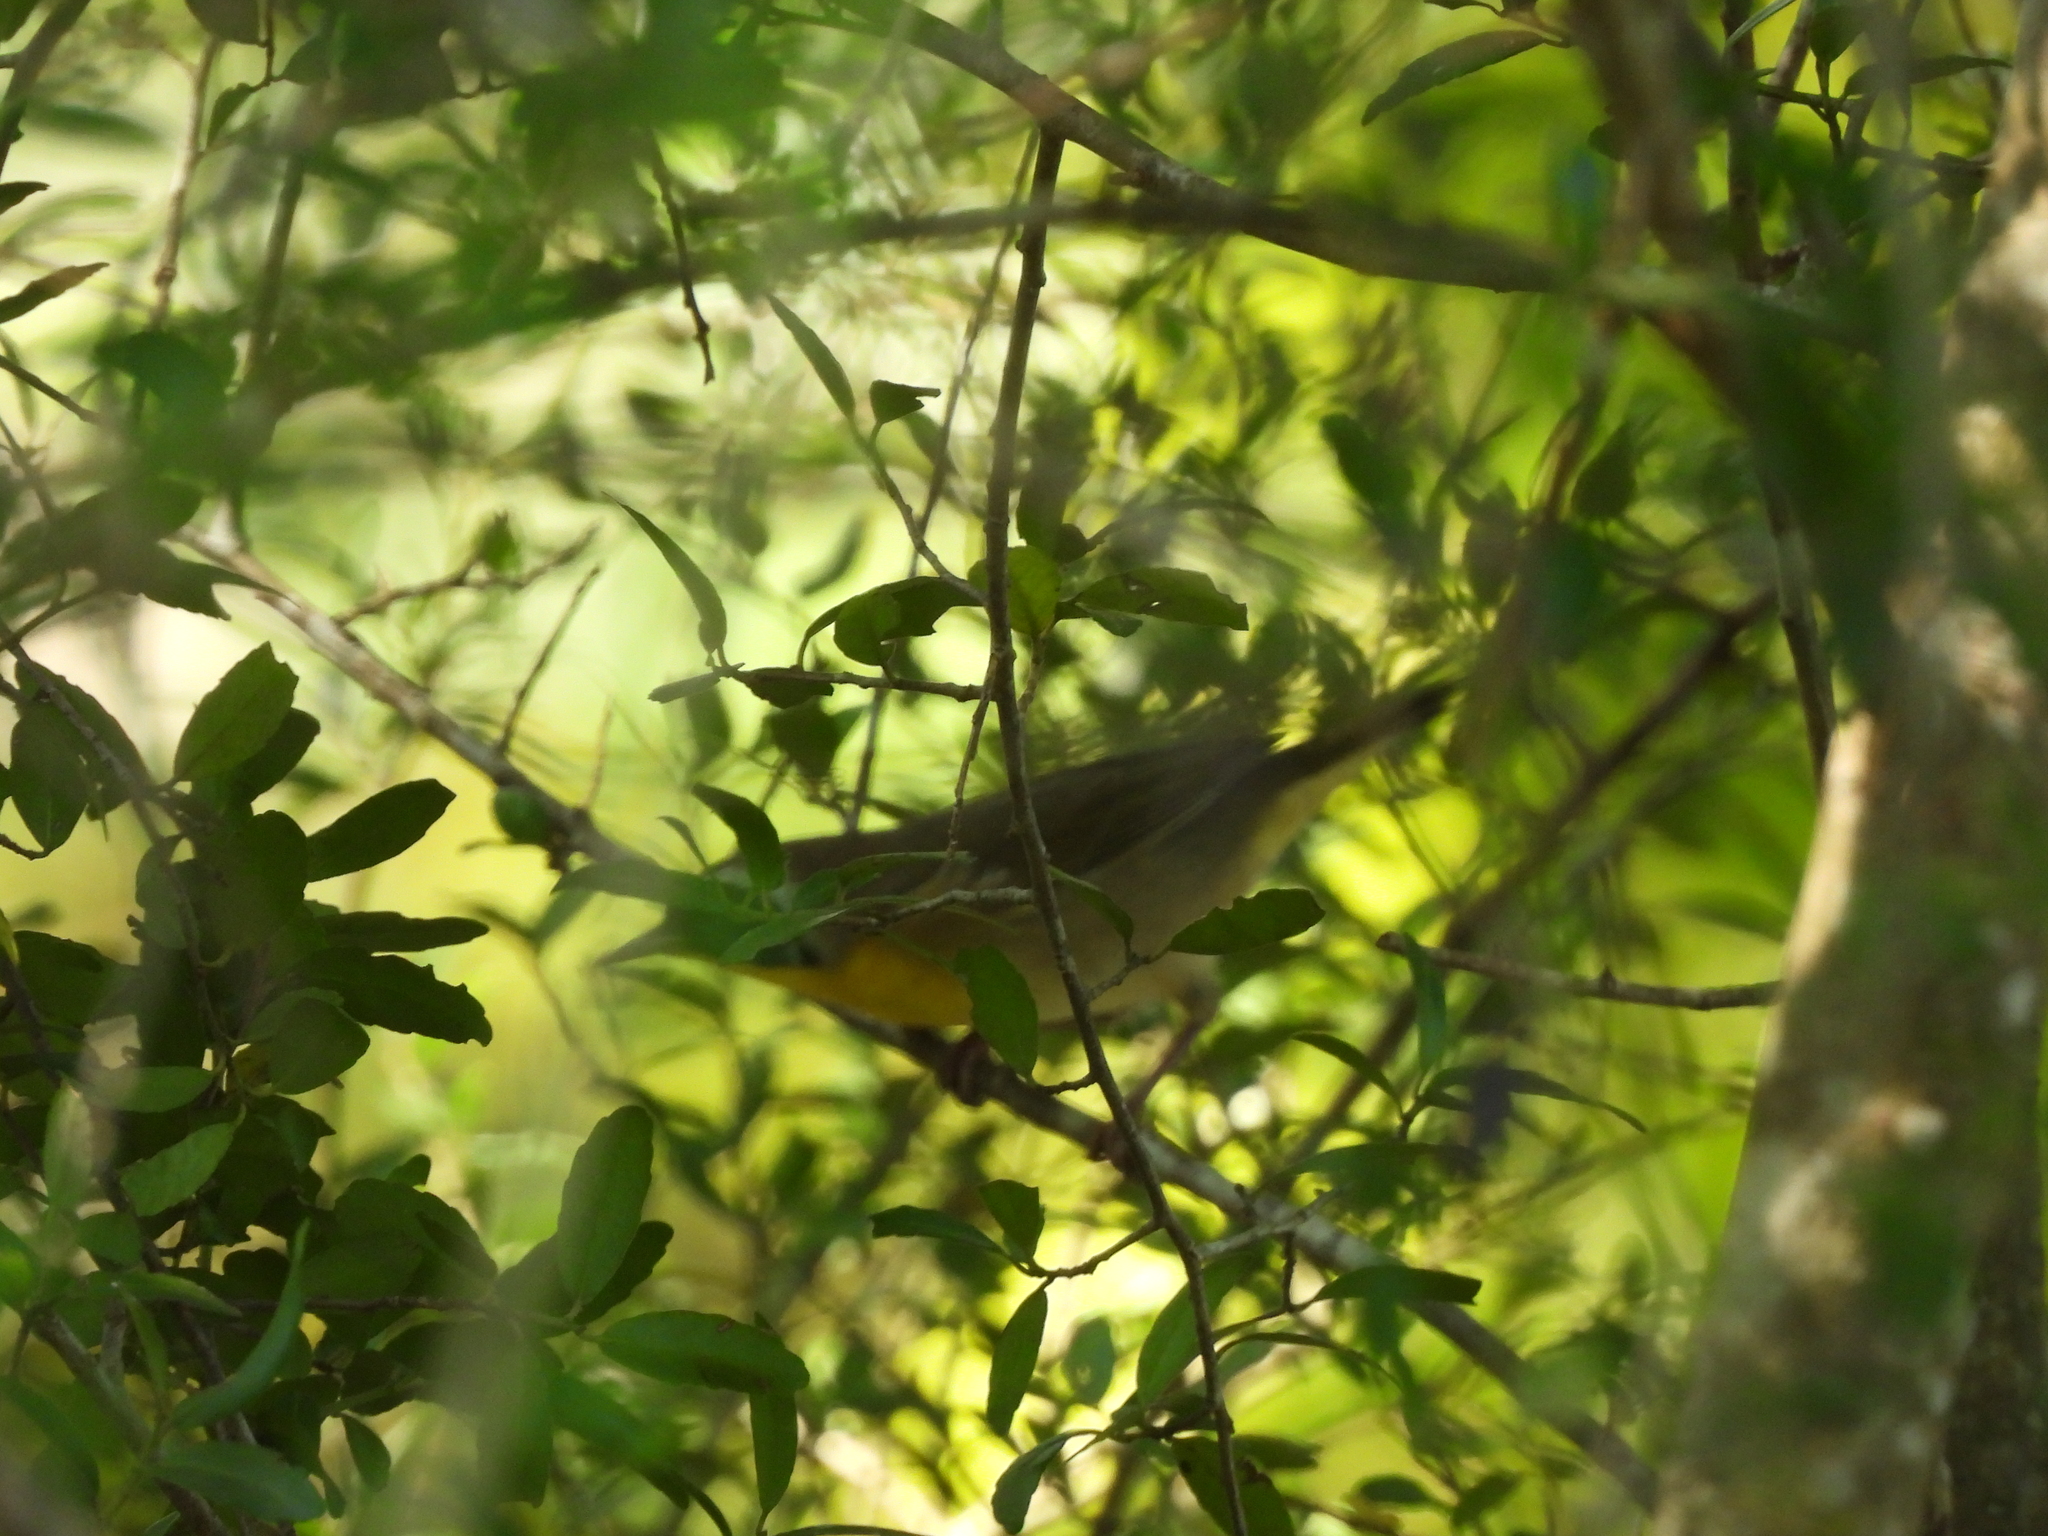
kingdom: Animalia
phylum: Chordata
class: Aves
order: Passeriformes
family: Parulidae
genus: Geothlypis
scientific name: Geothlypis trichas
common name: Common yellowthroat
